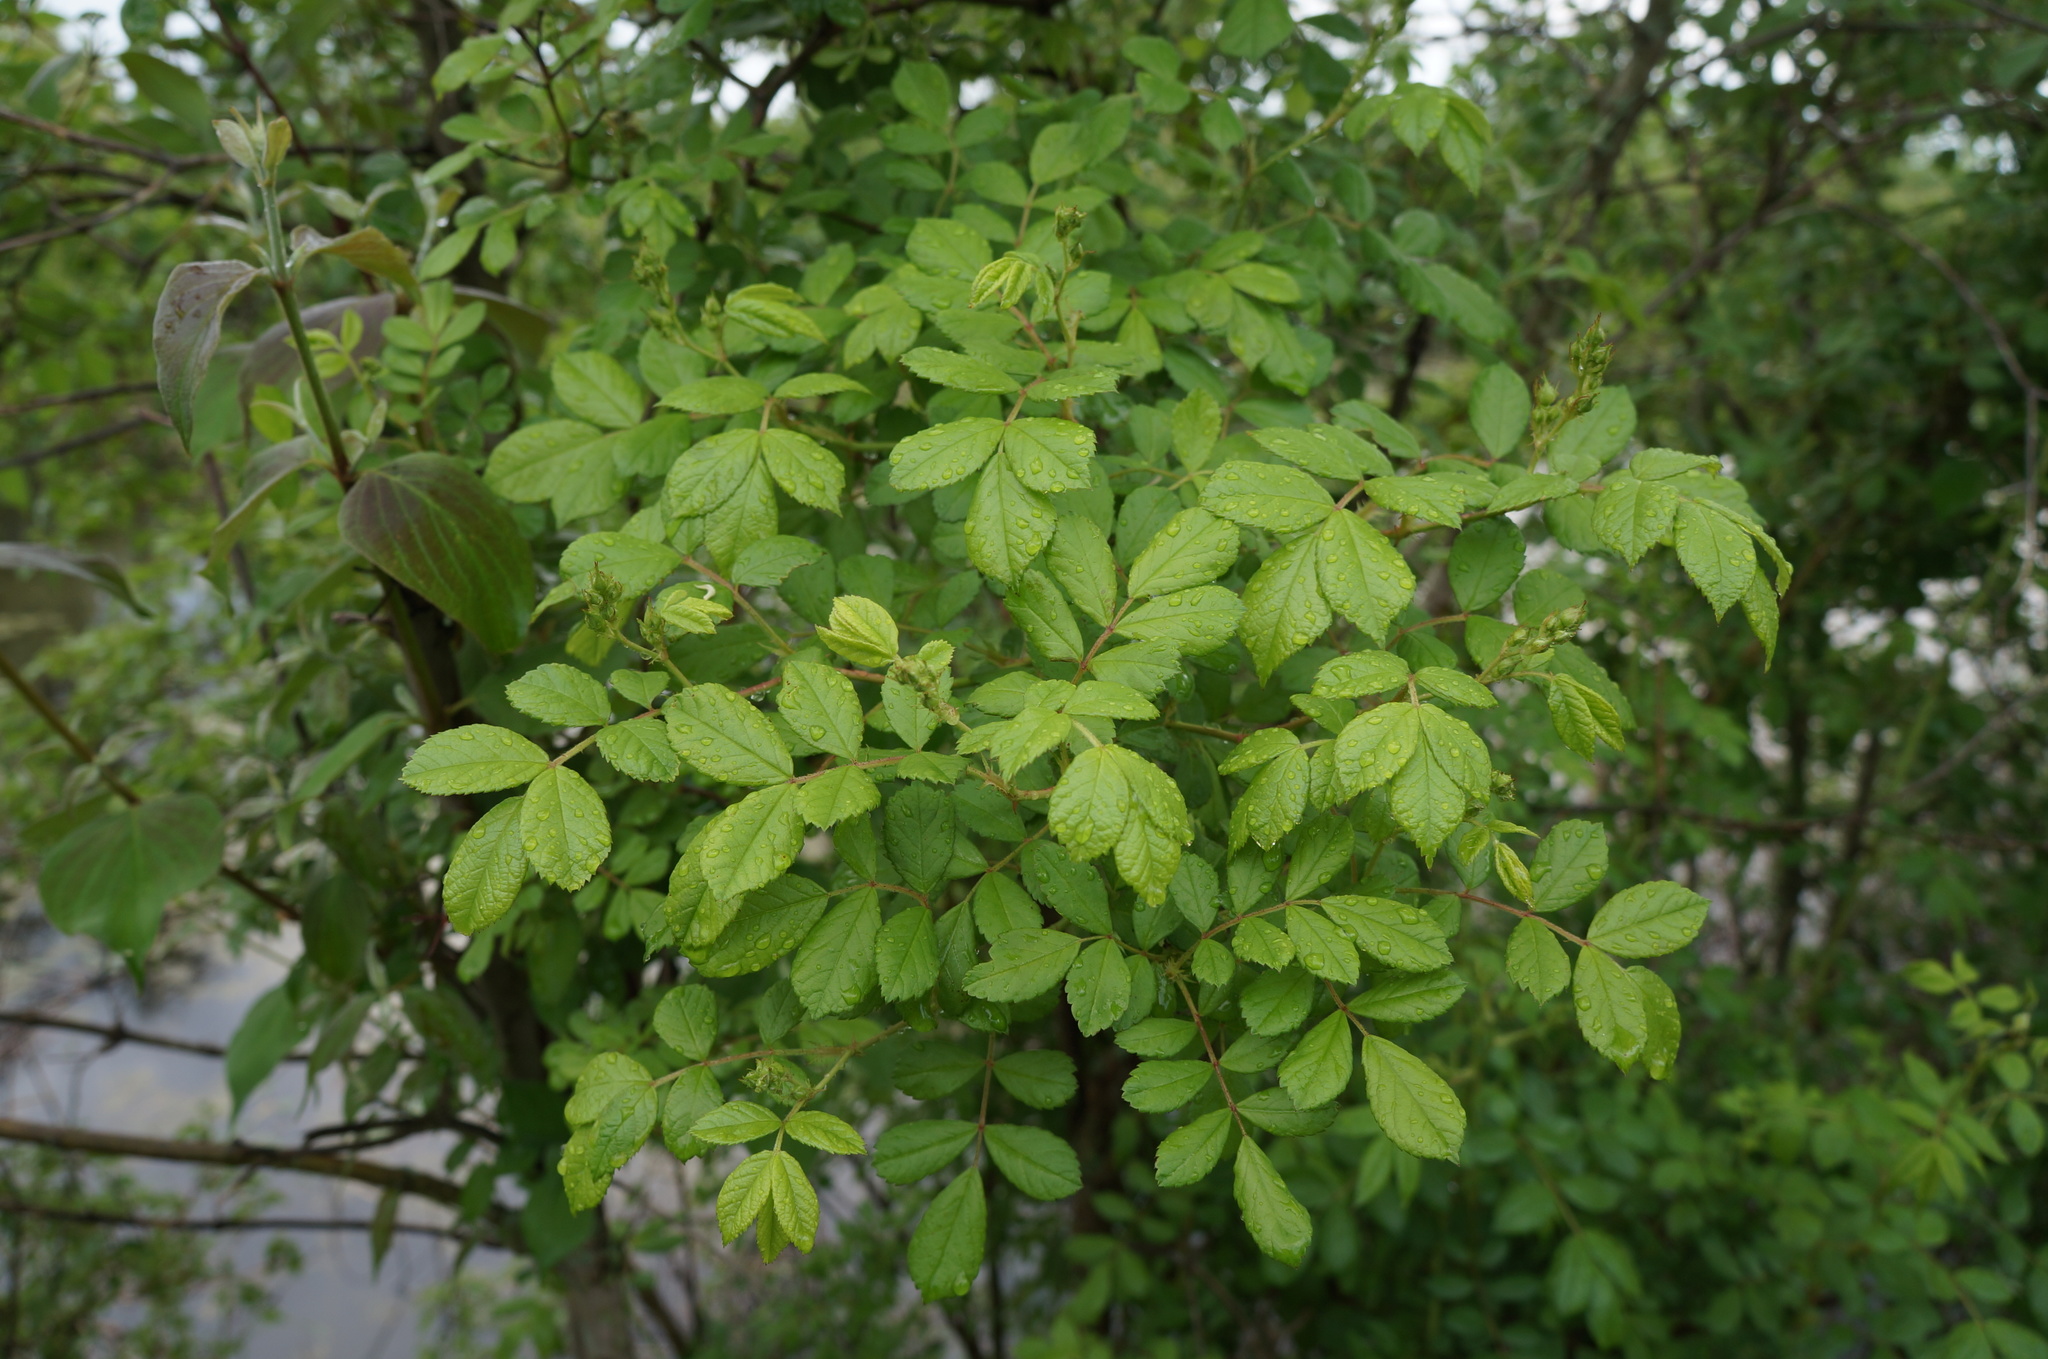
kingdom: Plantae
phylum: Tracheophyta
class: Magnoliopsida
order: Rosales
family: Rosaceae
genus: Rosa
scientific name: Rosa multiflora
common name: Multiflora rose
